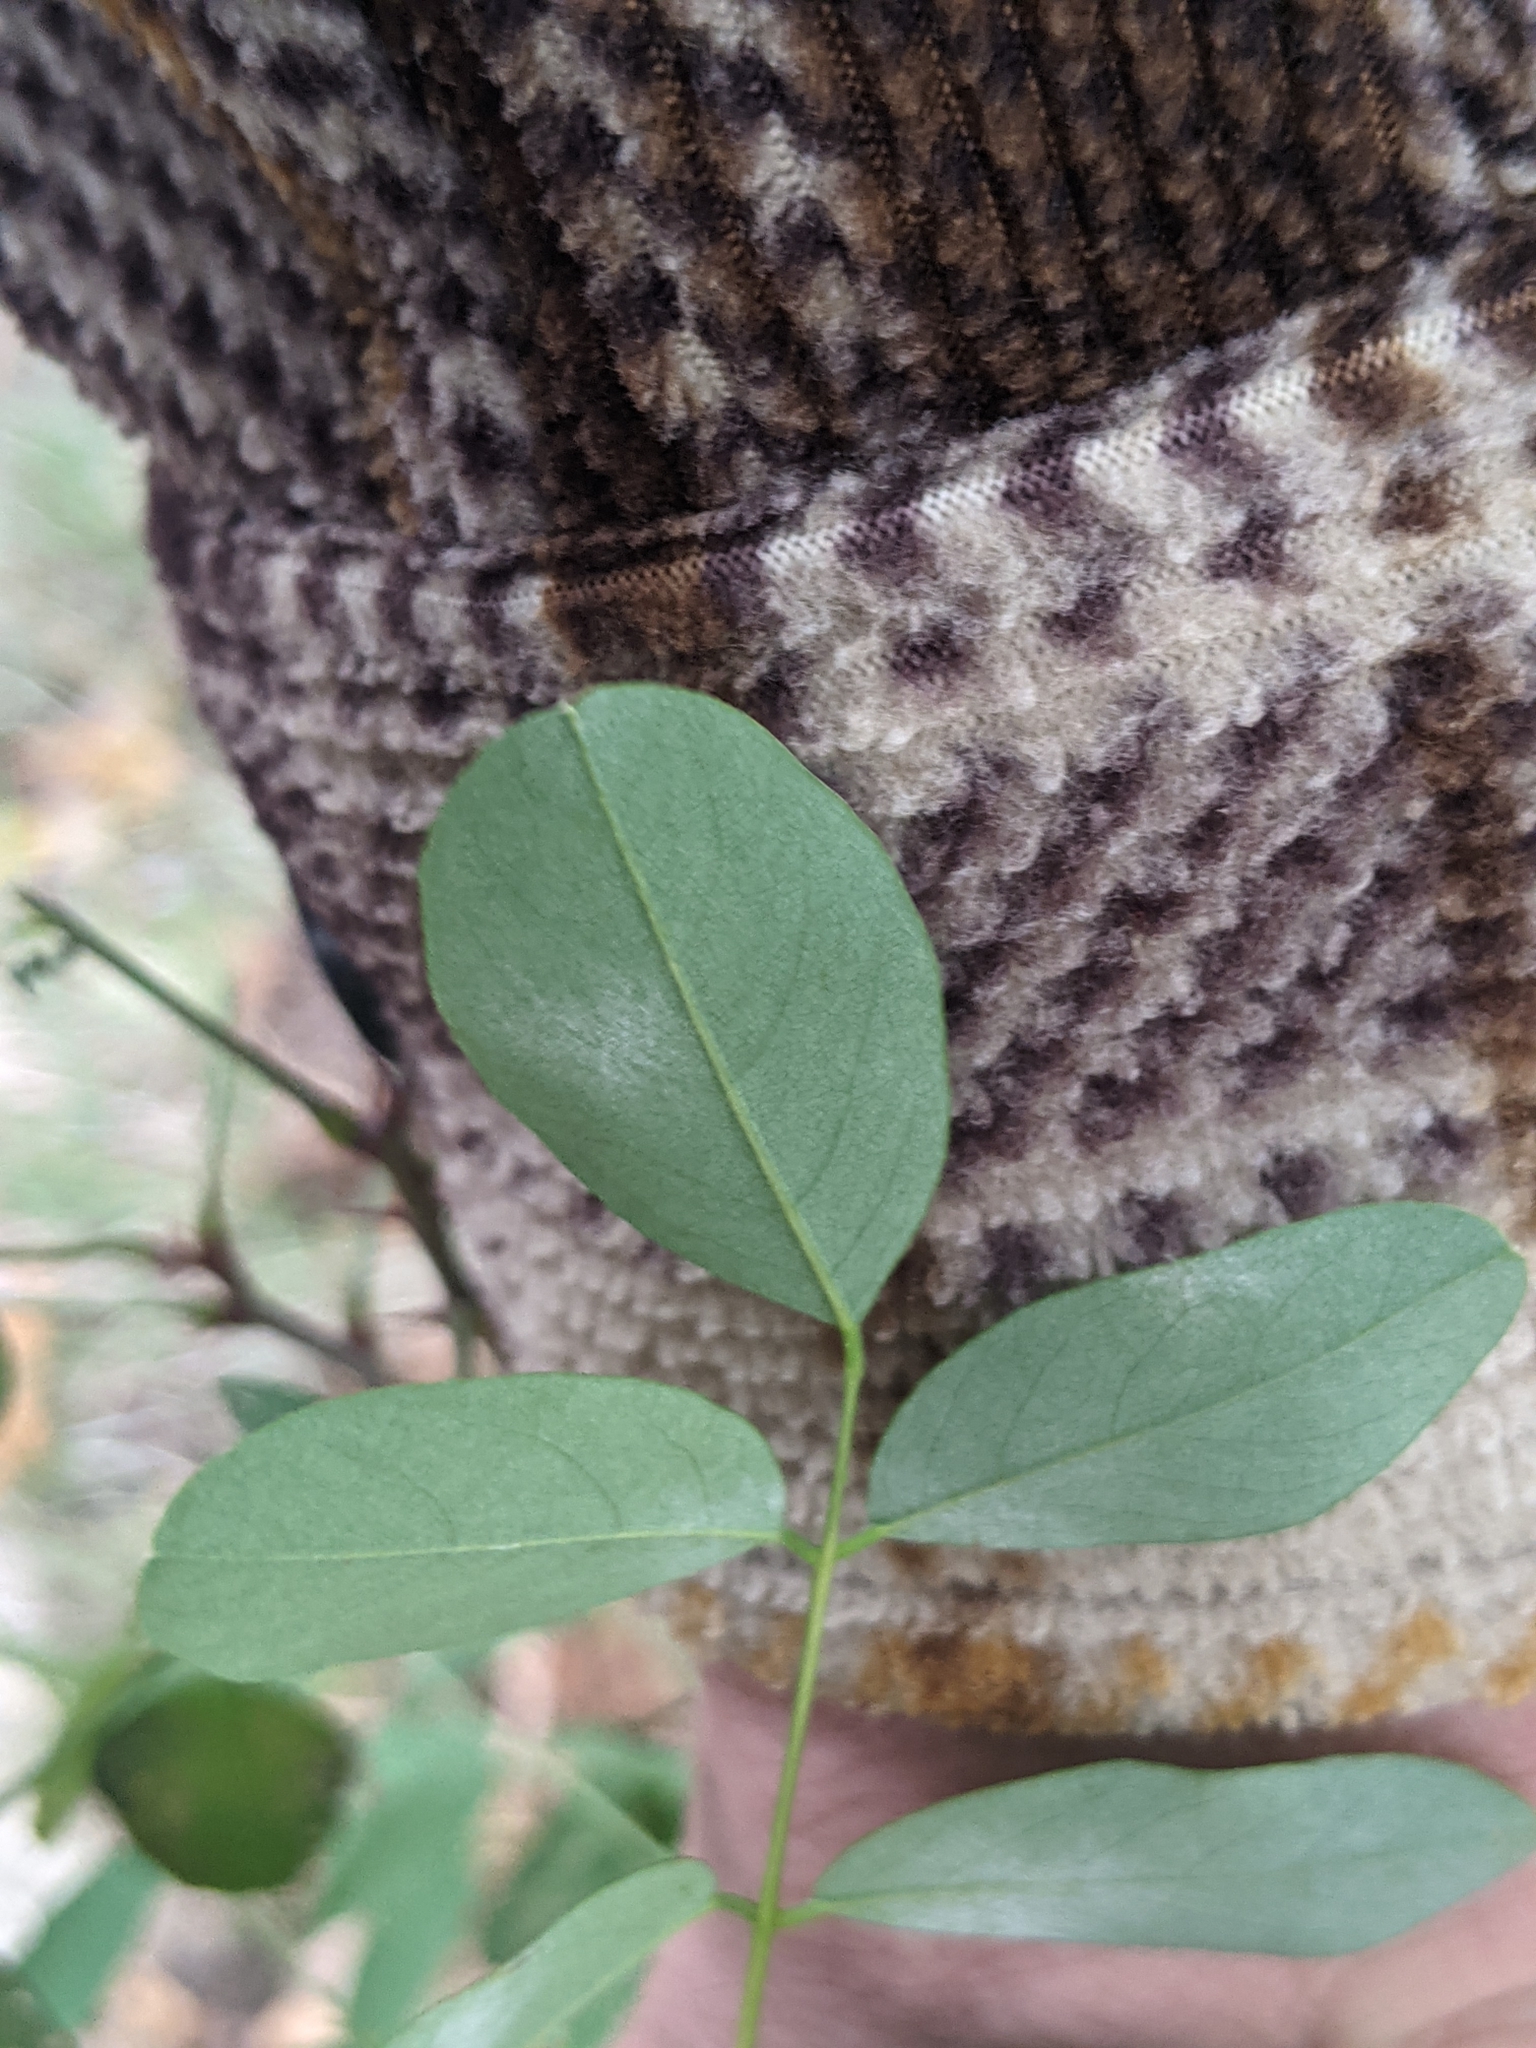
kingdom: Plantae
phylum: Tracheophyta
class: Magnoliopsida
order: Fabales
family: Fabaceae
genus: Robinia
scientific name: Robinia pseudoacacia
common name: Black locust
